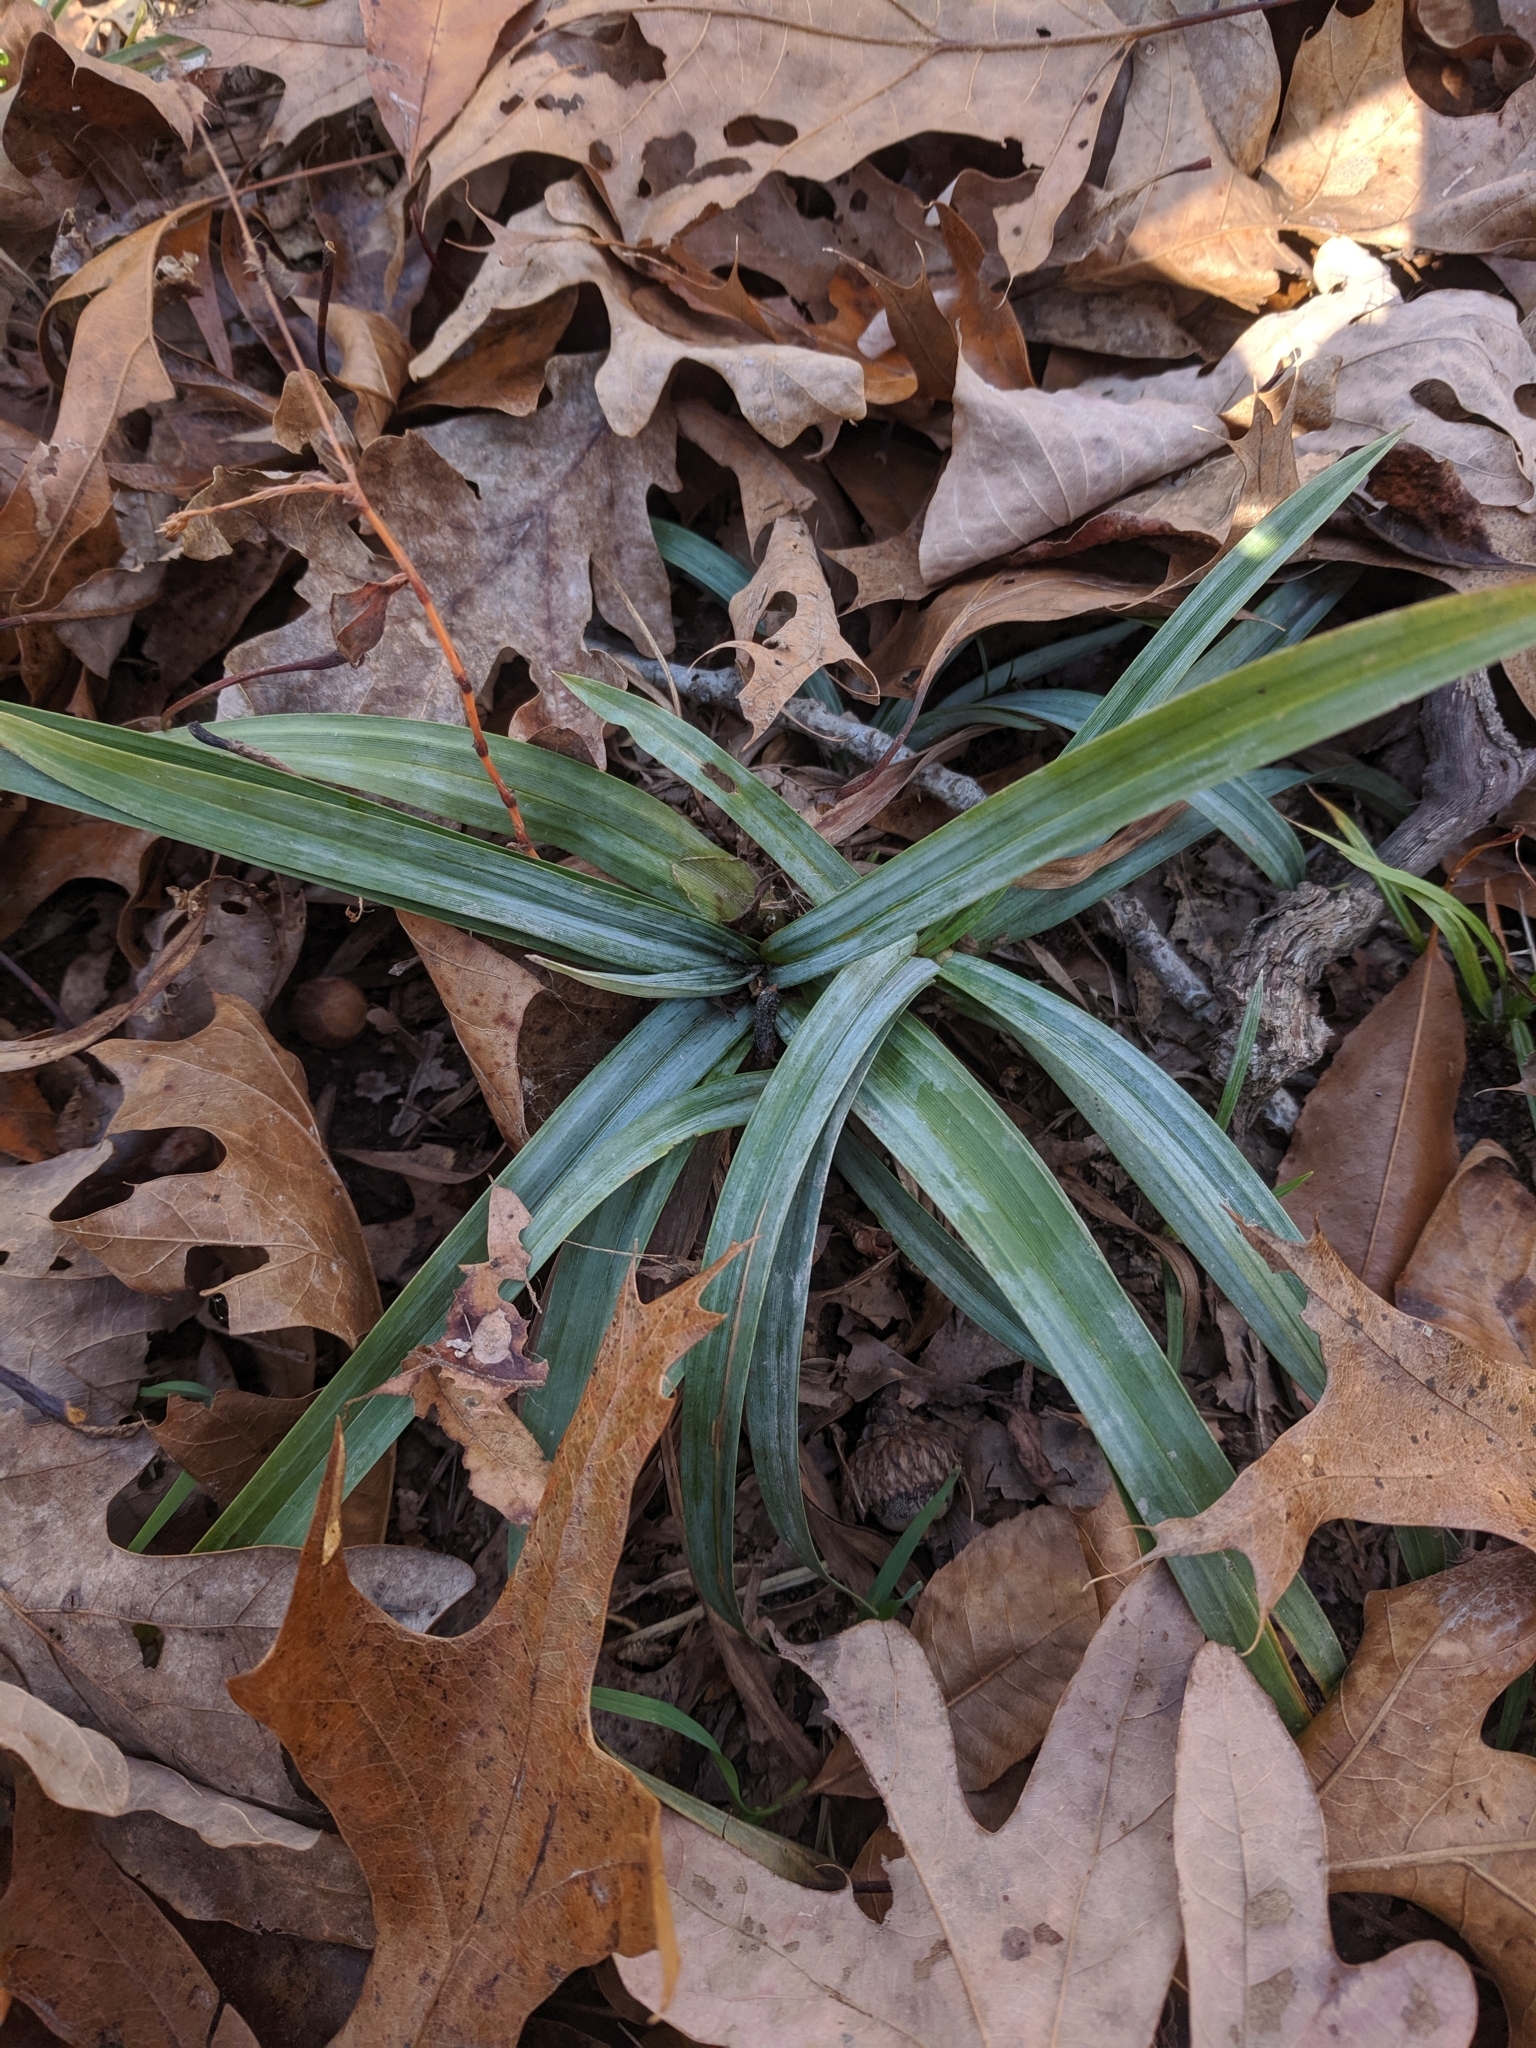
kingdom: Plantae
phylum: Tracheophyta
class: Liliopsida
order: Poales
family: Cyperaceae
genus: Carex
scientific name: Carex glaucodea
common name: Blue sedge
